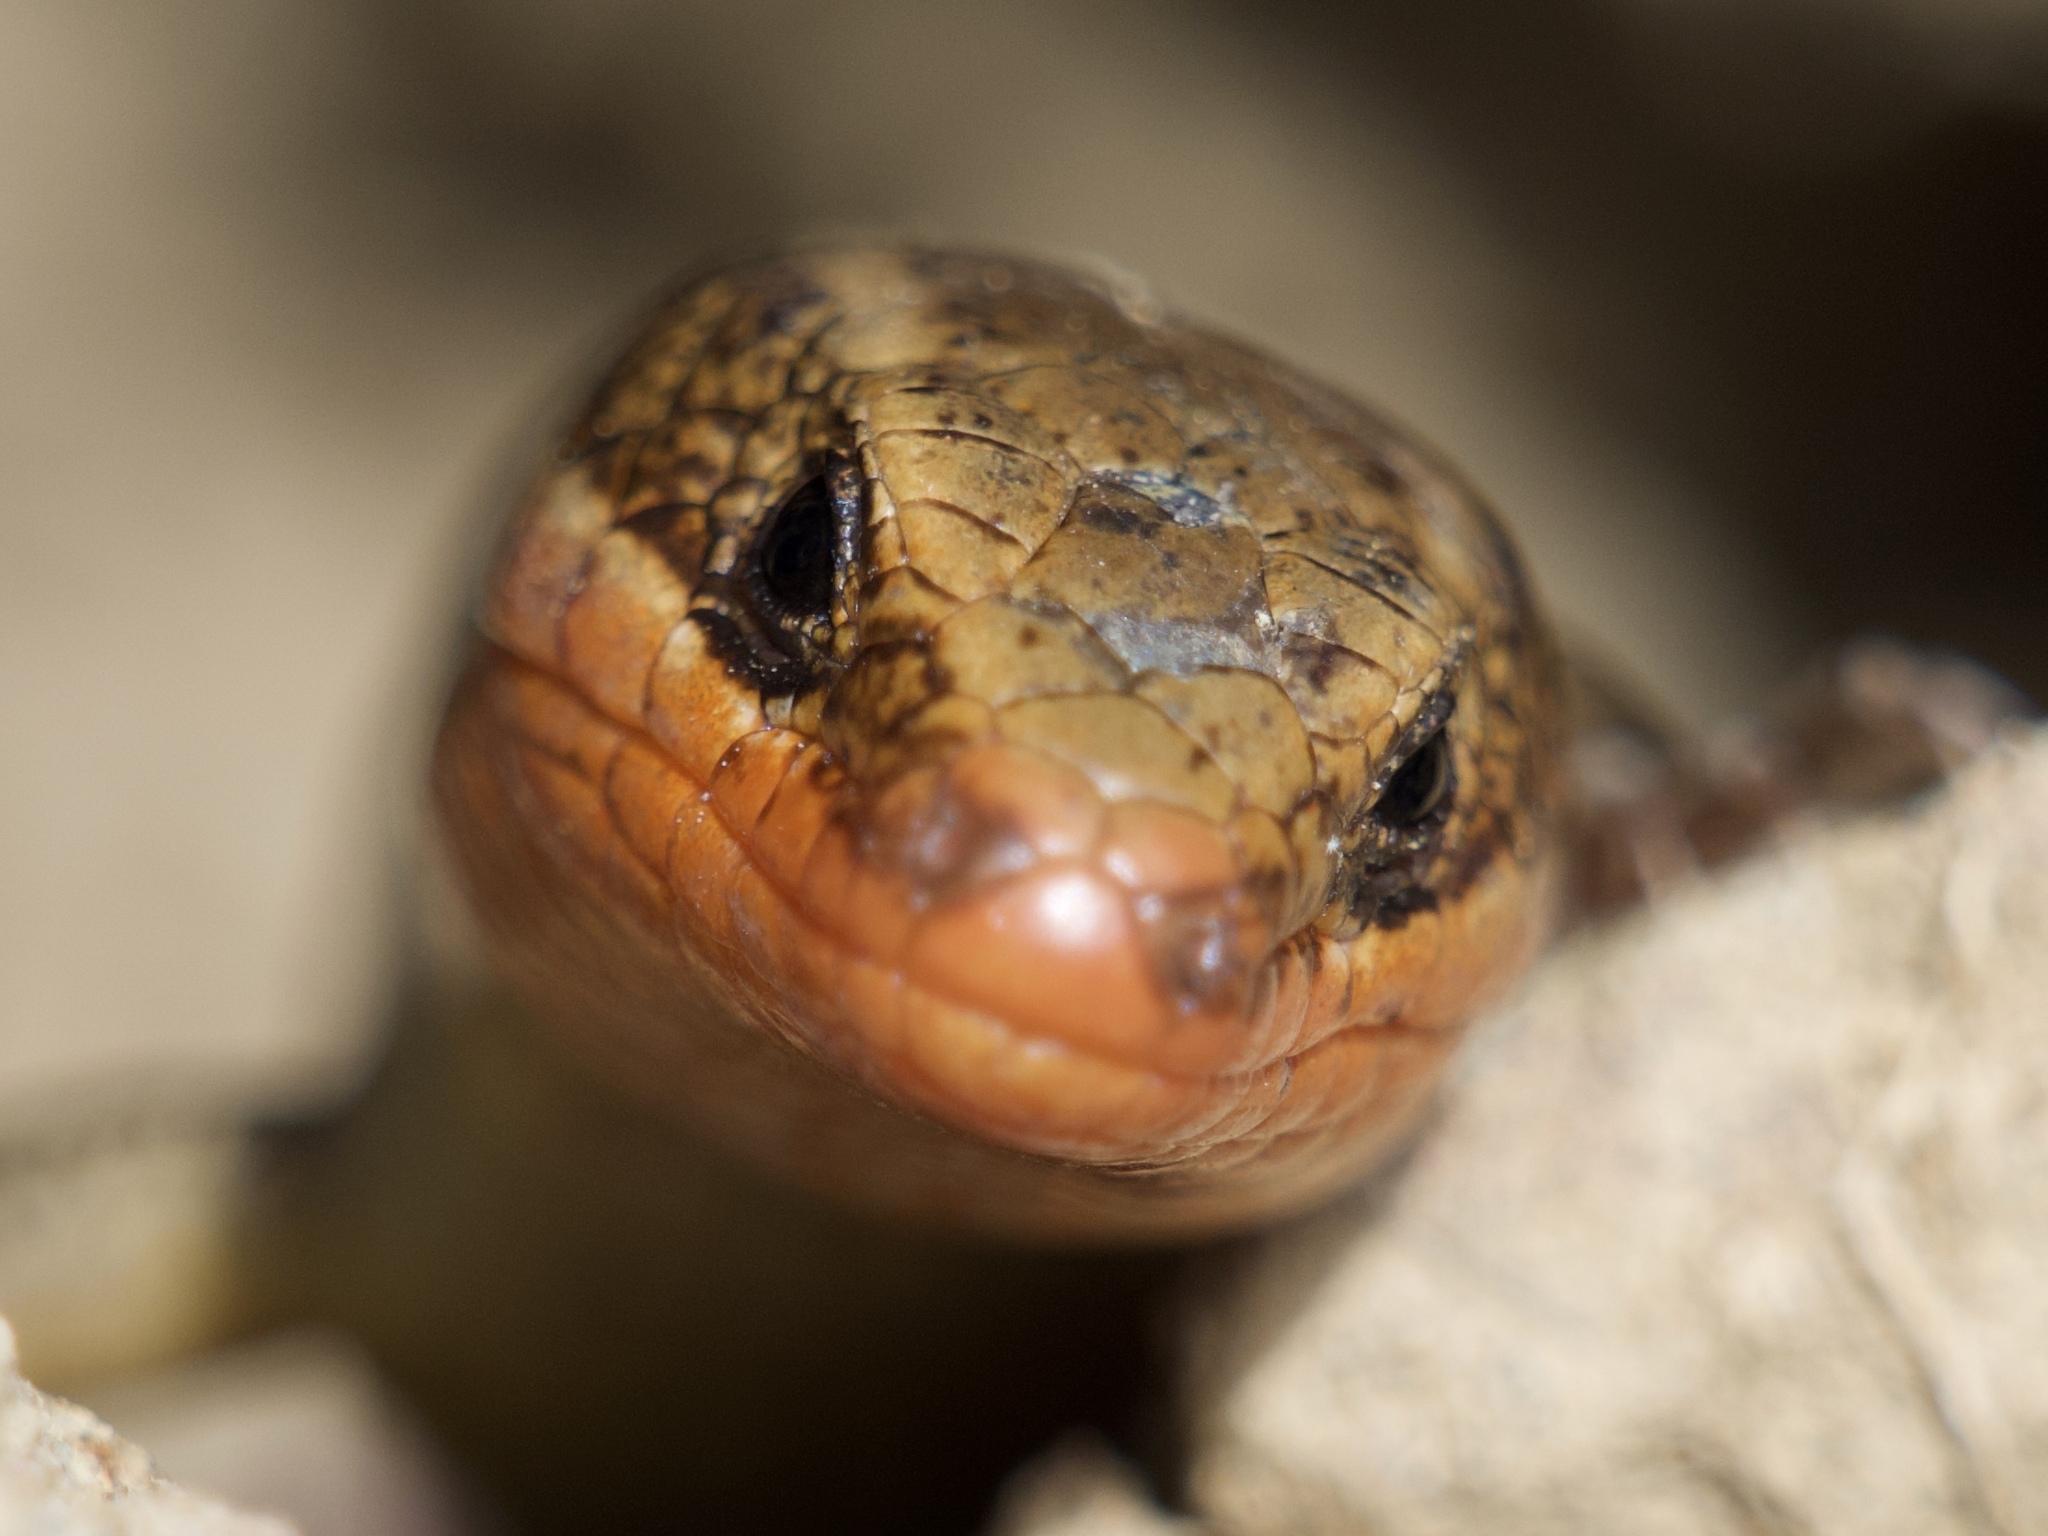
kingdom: Animalia
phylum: Chordata
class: Squamata
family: Scincidae
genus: Plestiodon
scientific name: Plestiodon skiltonianus
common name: Coronado island skink [interparietalis]
